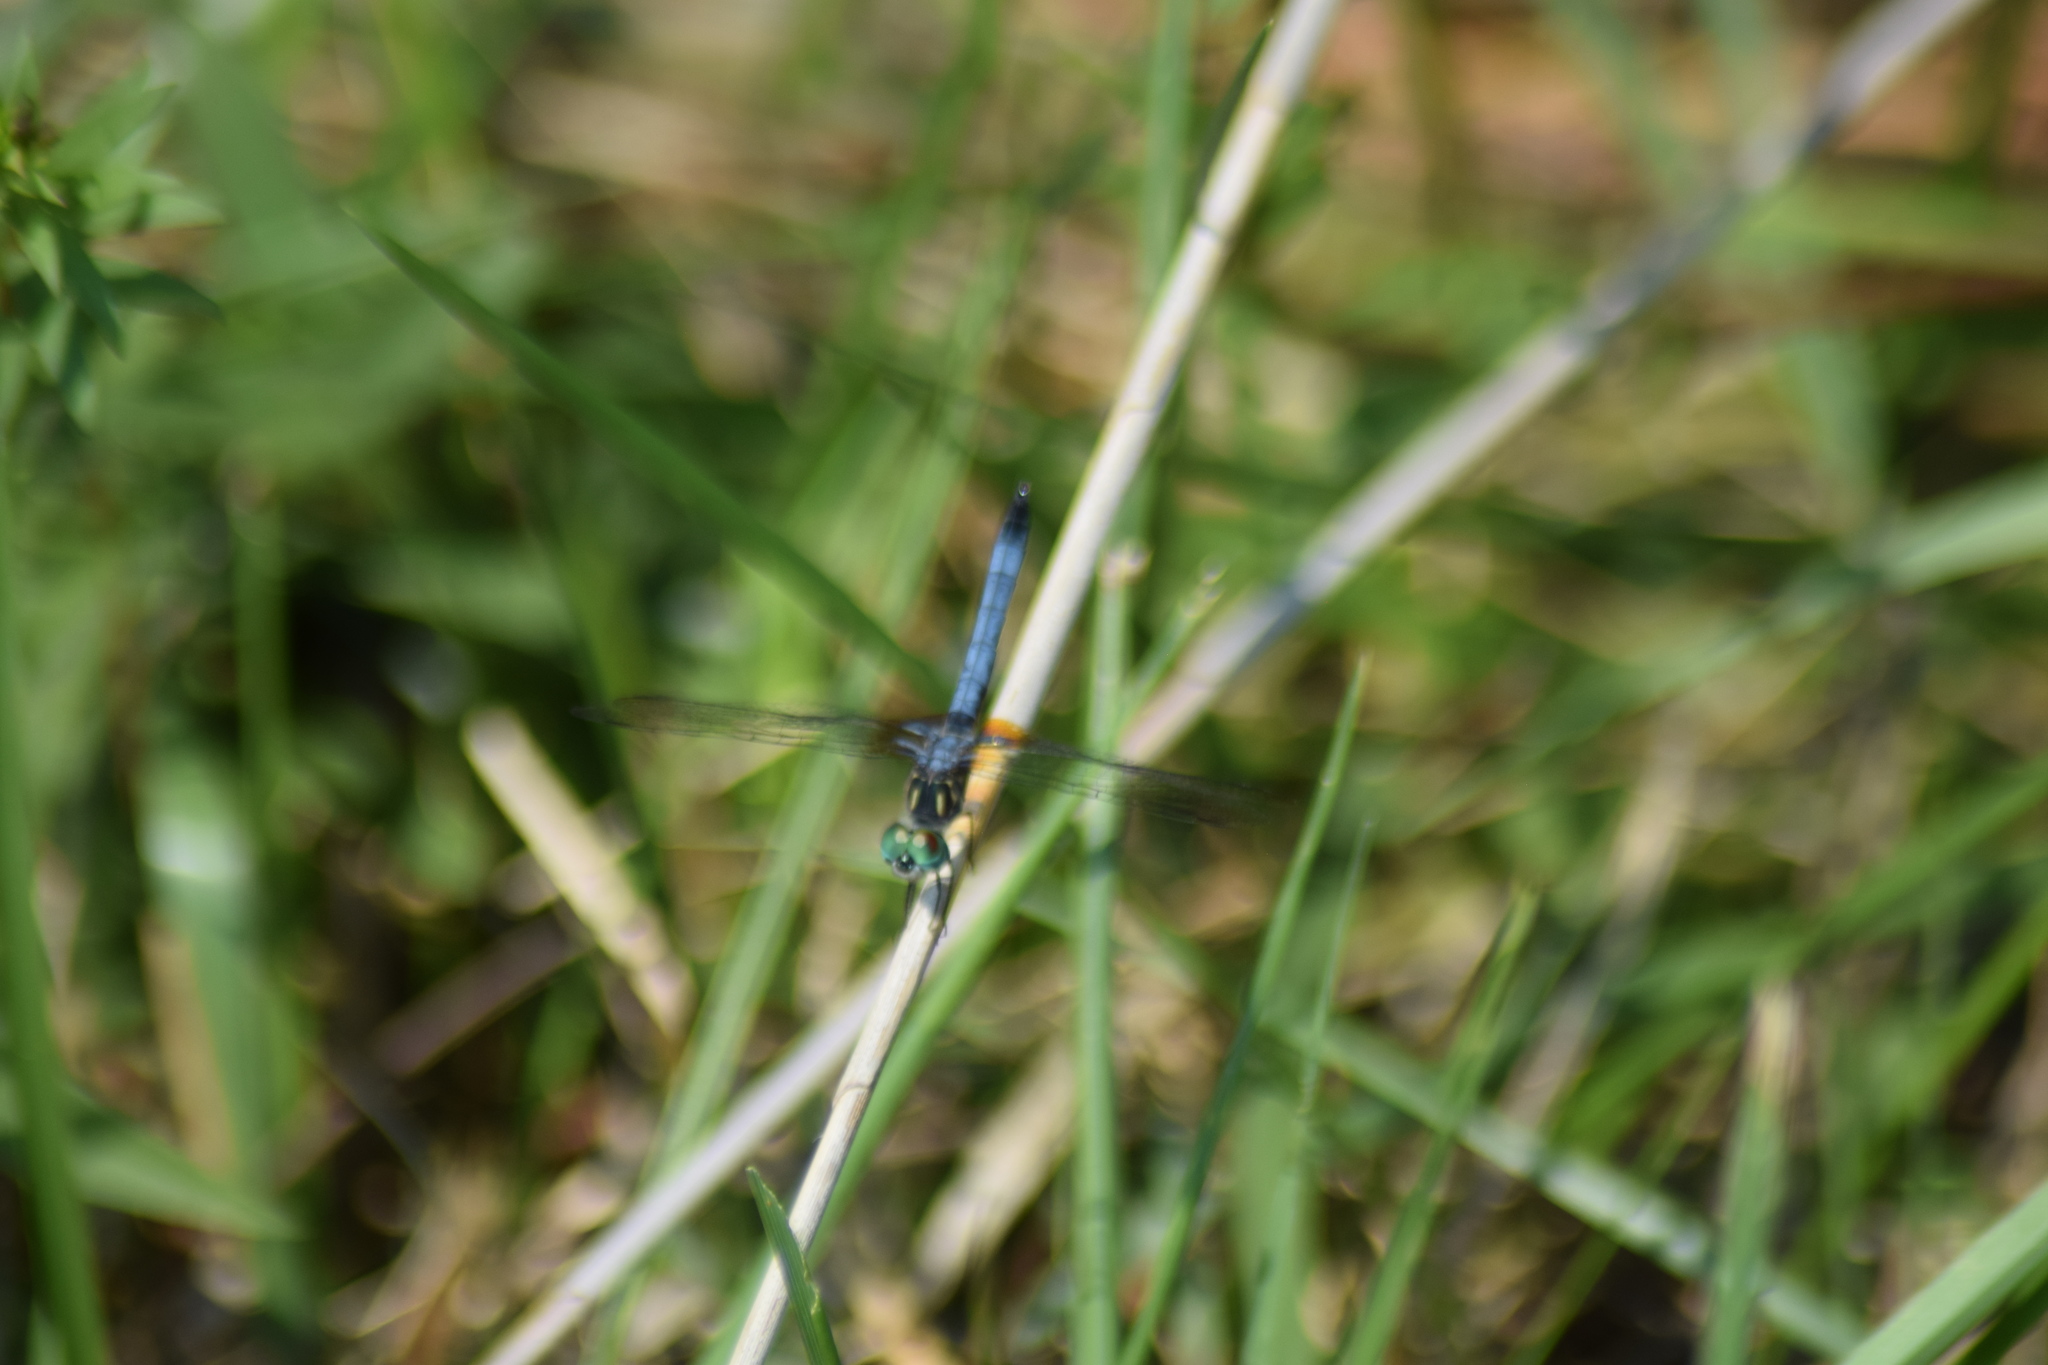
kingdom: Animalia
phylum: Arthropoda
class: Insecta
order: Odonata
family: Libellulidae
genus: Pachydiplax
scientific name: Pachydiplax longipennis
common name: Blue dasher
